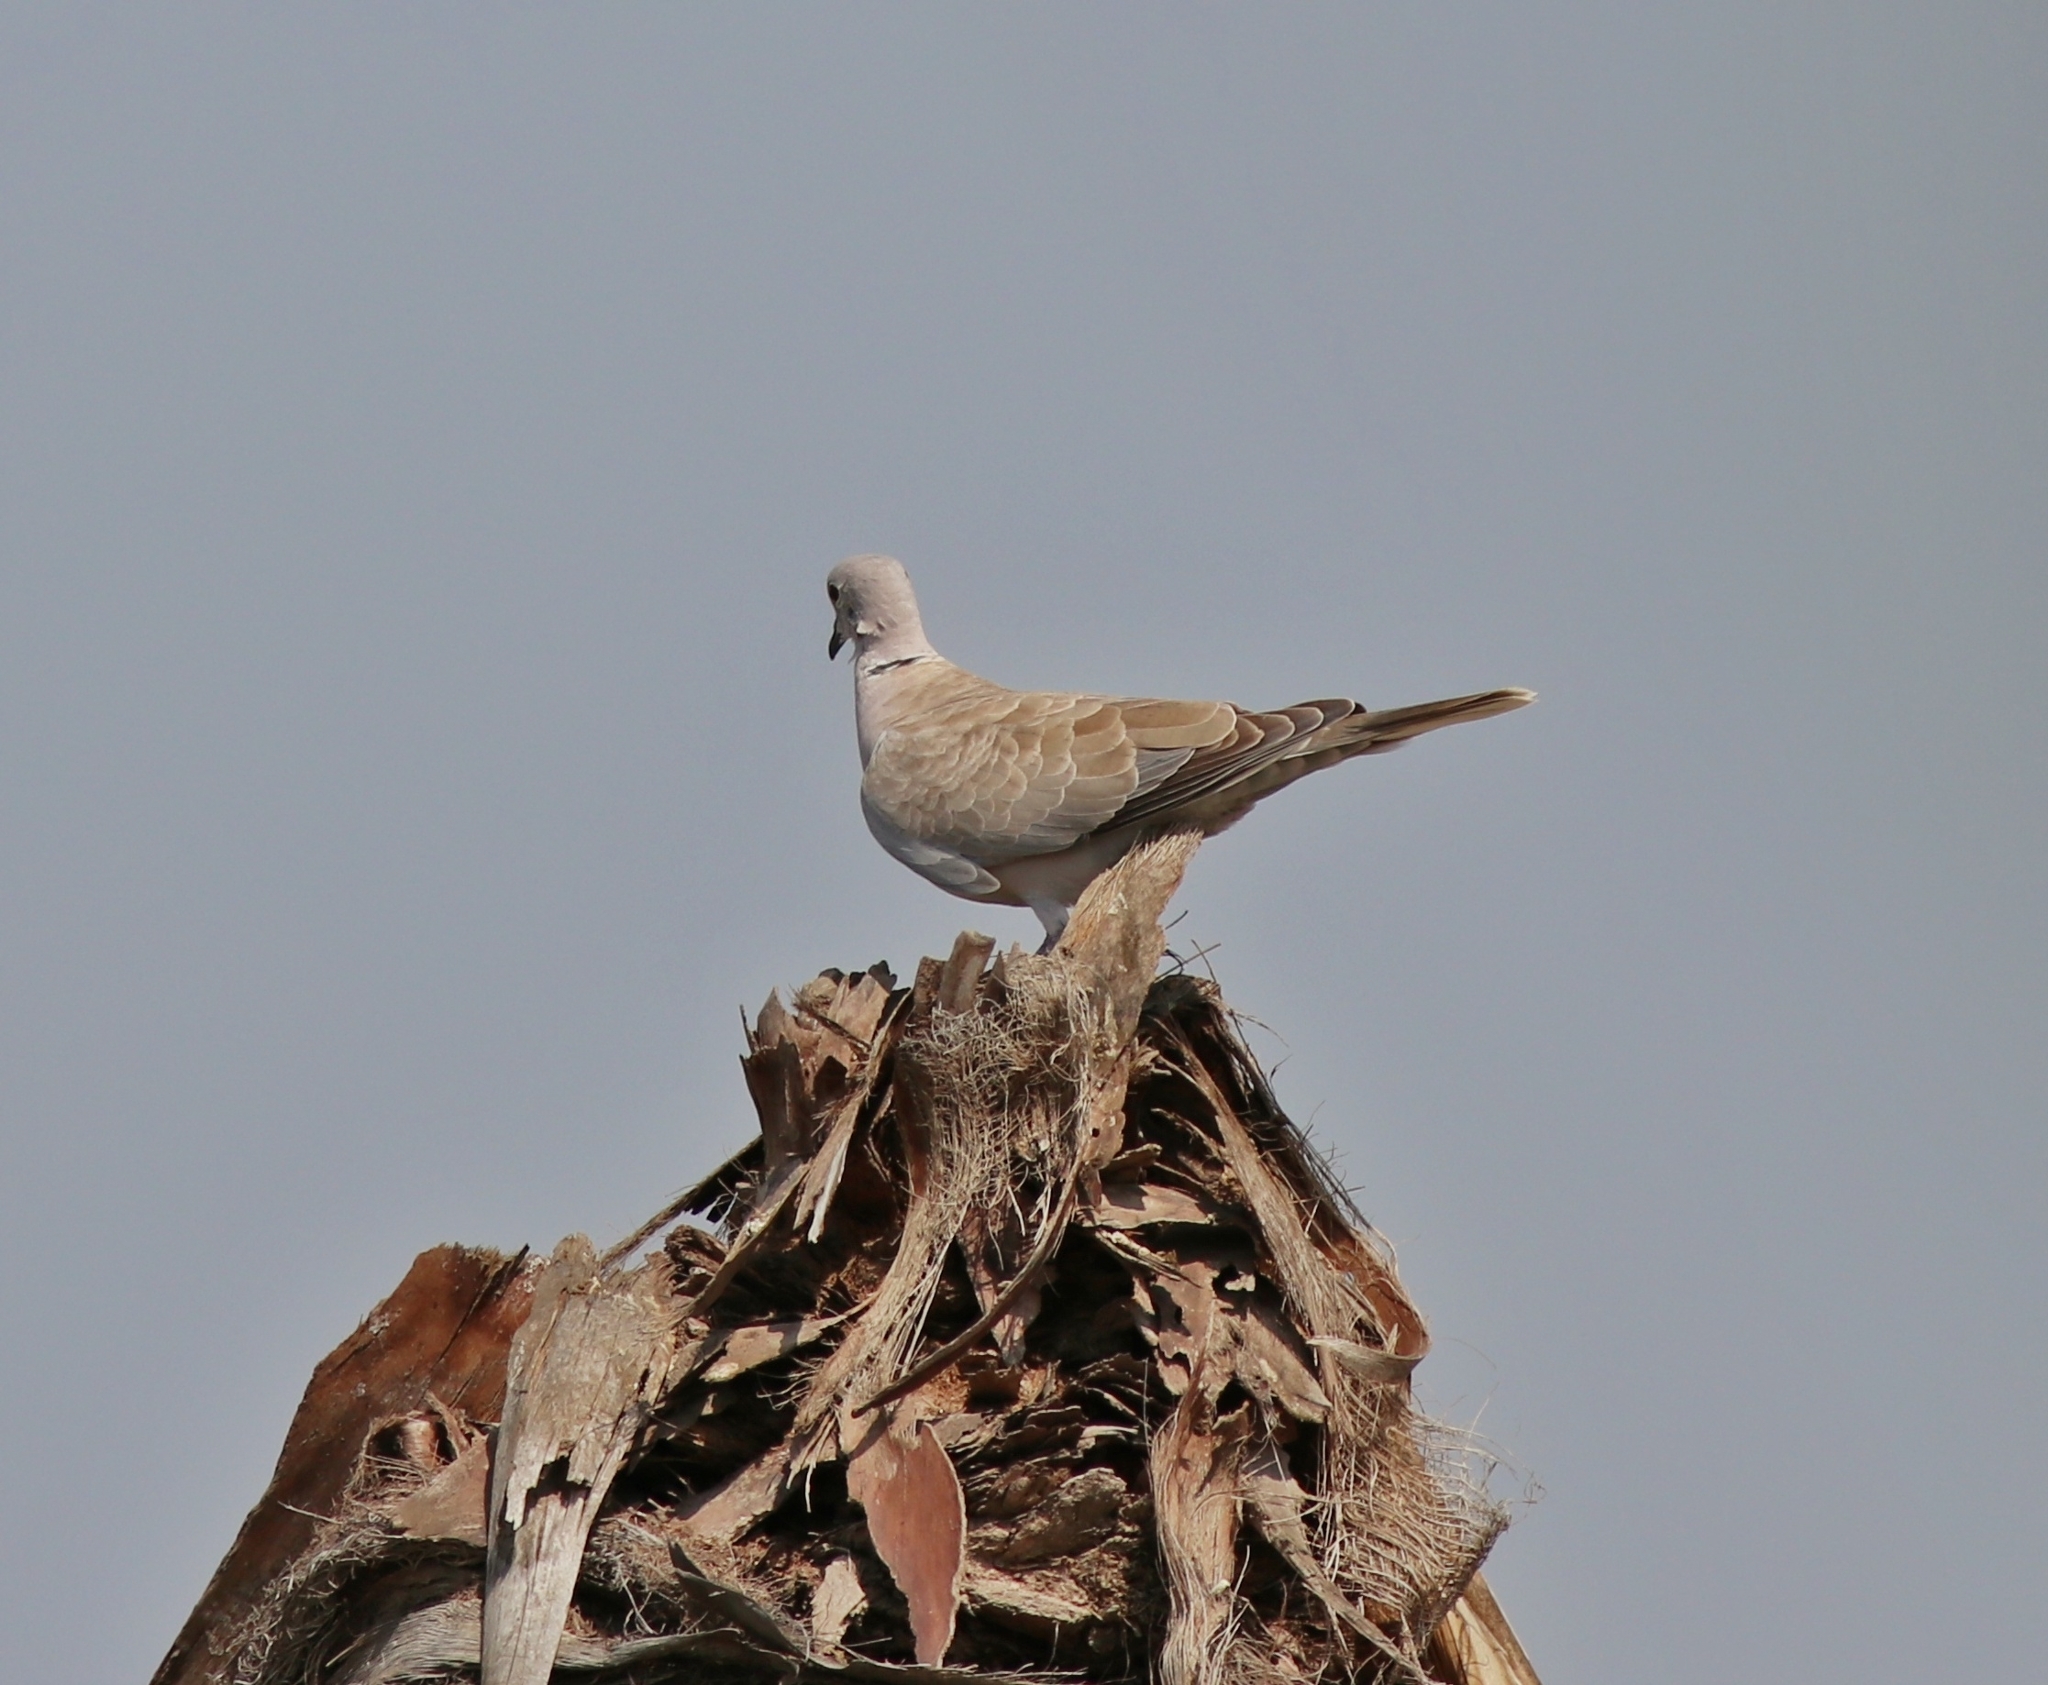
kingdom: Animalia
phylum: Chordata
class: Aves
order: Columbiformes
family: Columbidae
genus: Streptopelia
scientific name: Streptopelia decaocto
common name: Eurasian collared dove
